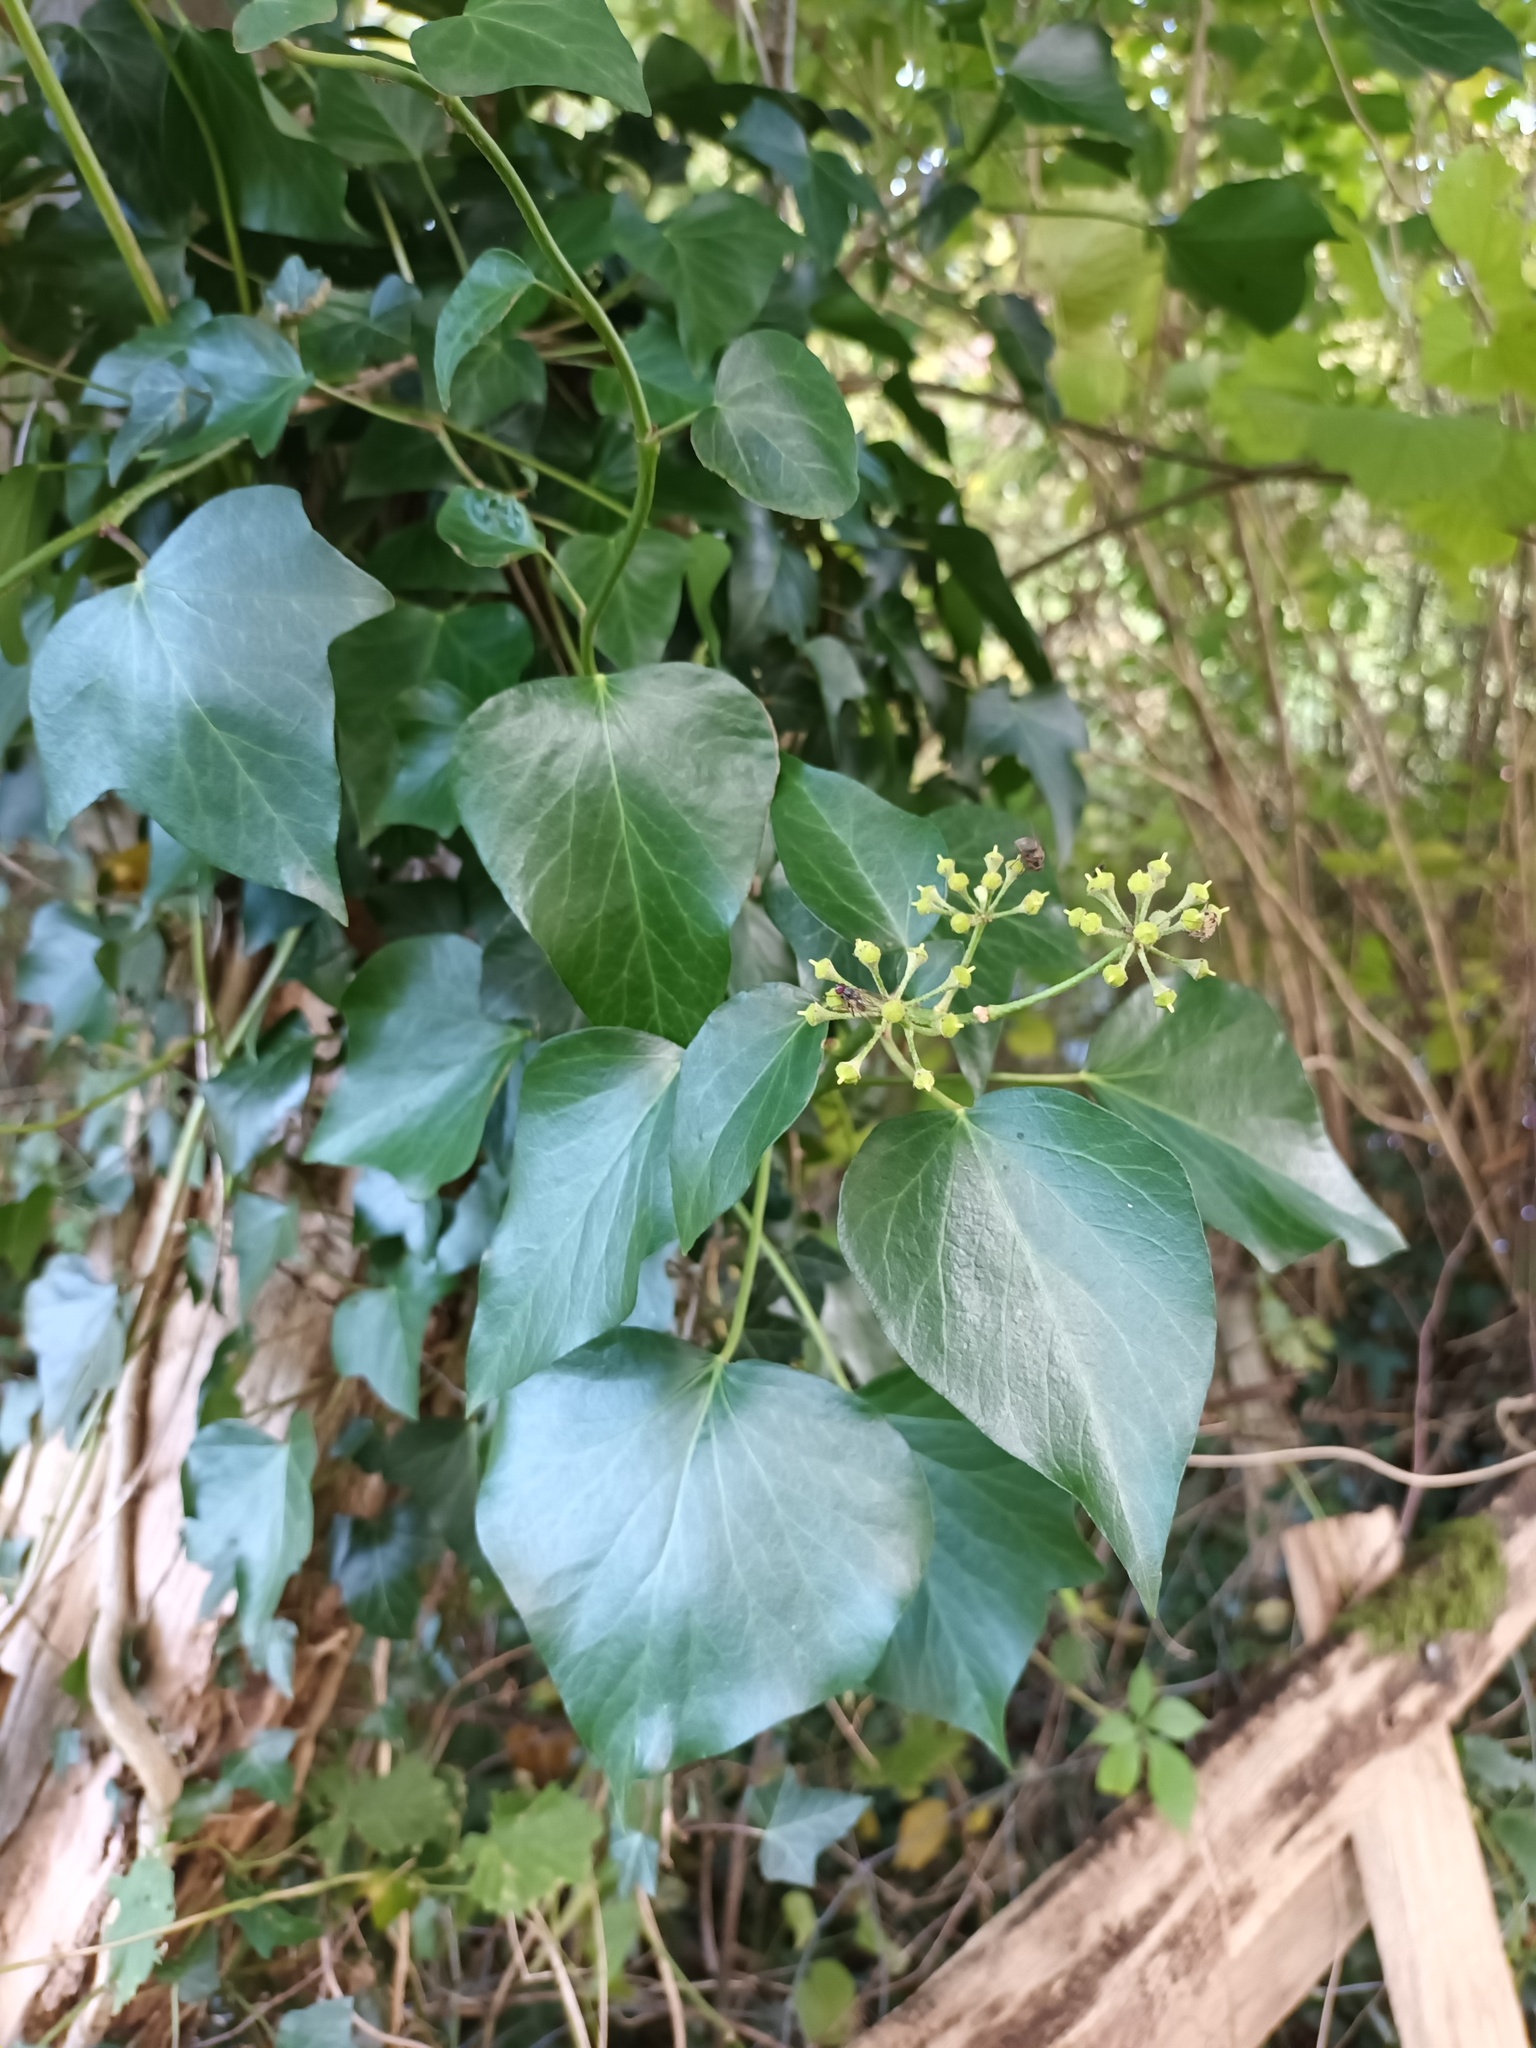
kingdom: Plantae
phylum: Tracheophyta
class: Magnoliopsida
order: Apiales
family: Araliaceae
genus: Hedera
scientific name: Hedera helix
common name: Ivy
